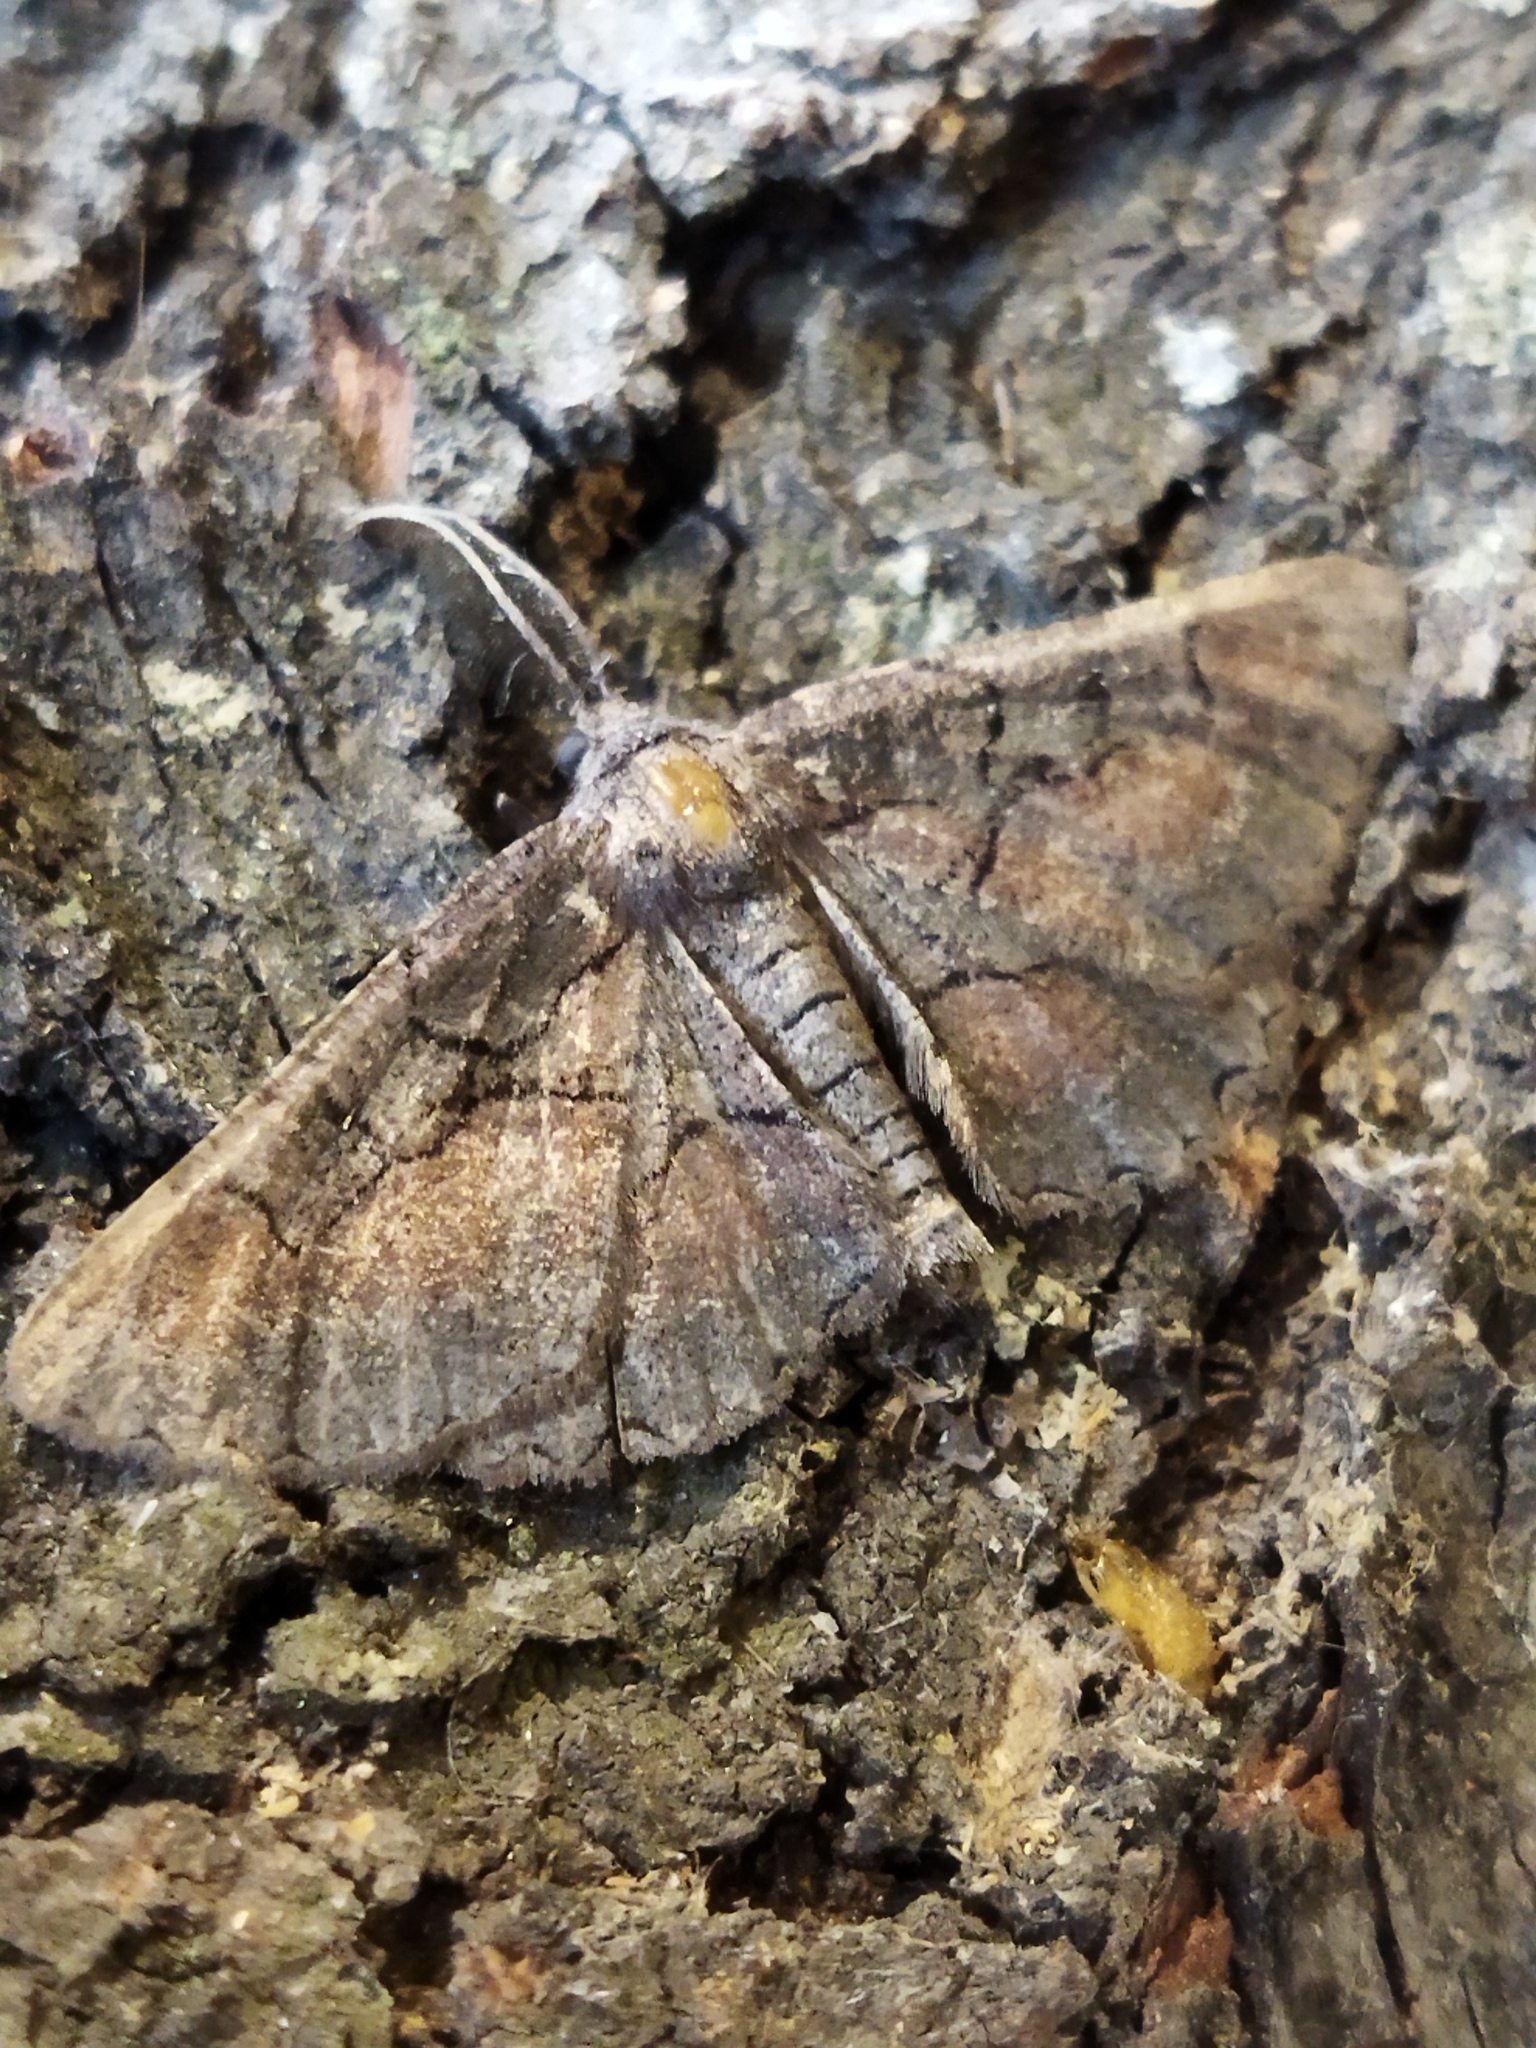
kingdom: Animalia
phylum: Arthropoda
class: Insecta
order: Lepidoptera
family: Geometridae
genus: Nychiodes
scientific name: Nychiodes waltheri
